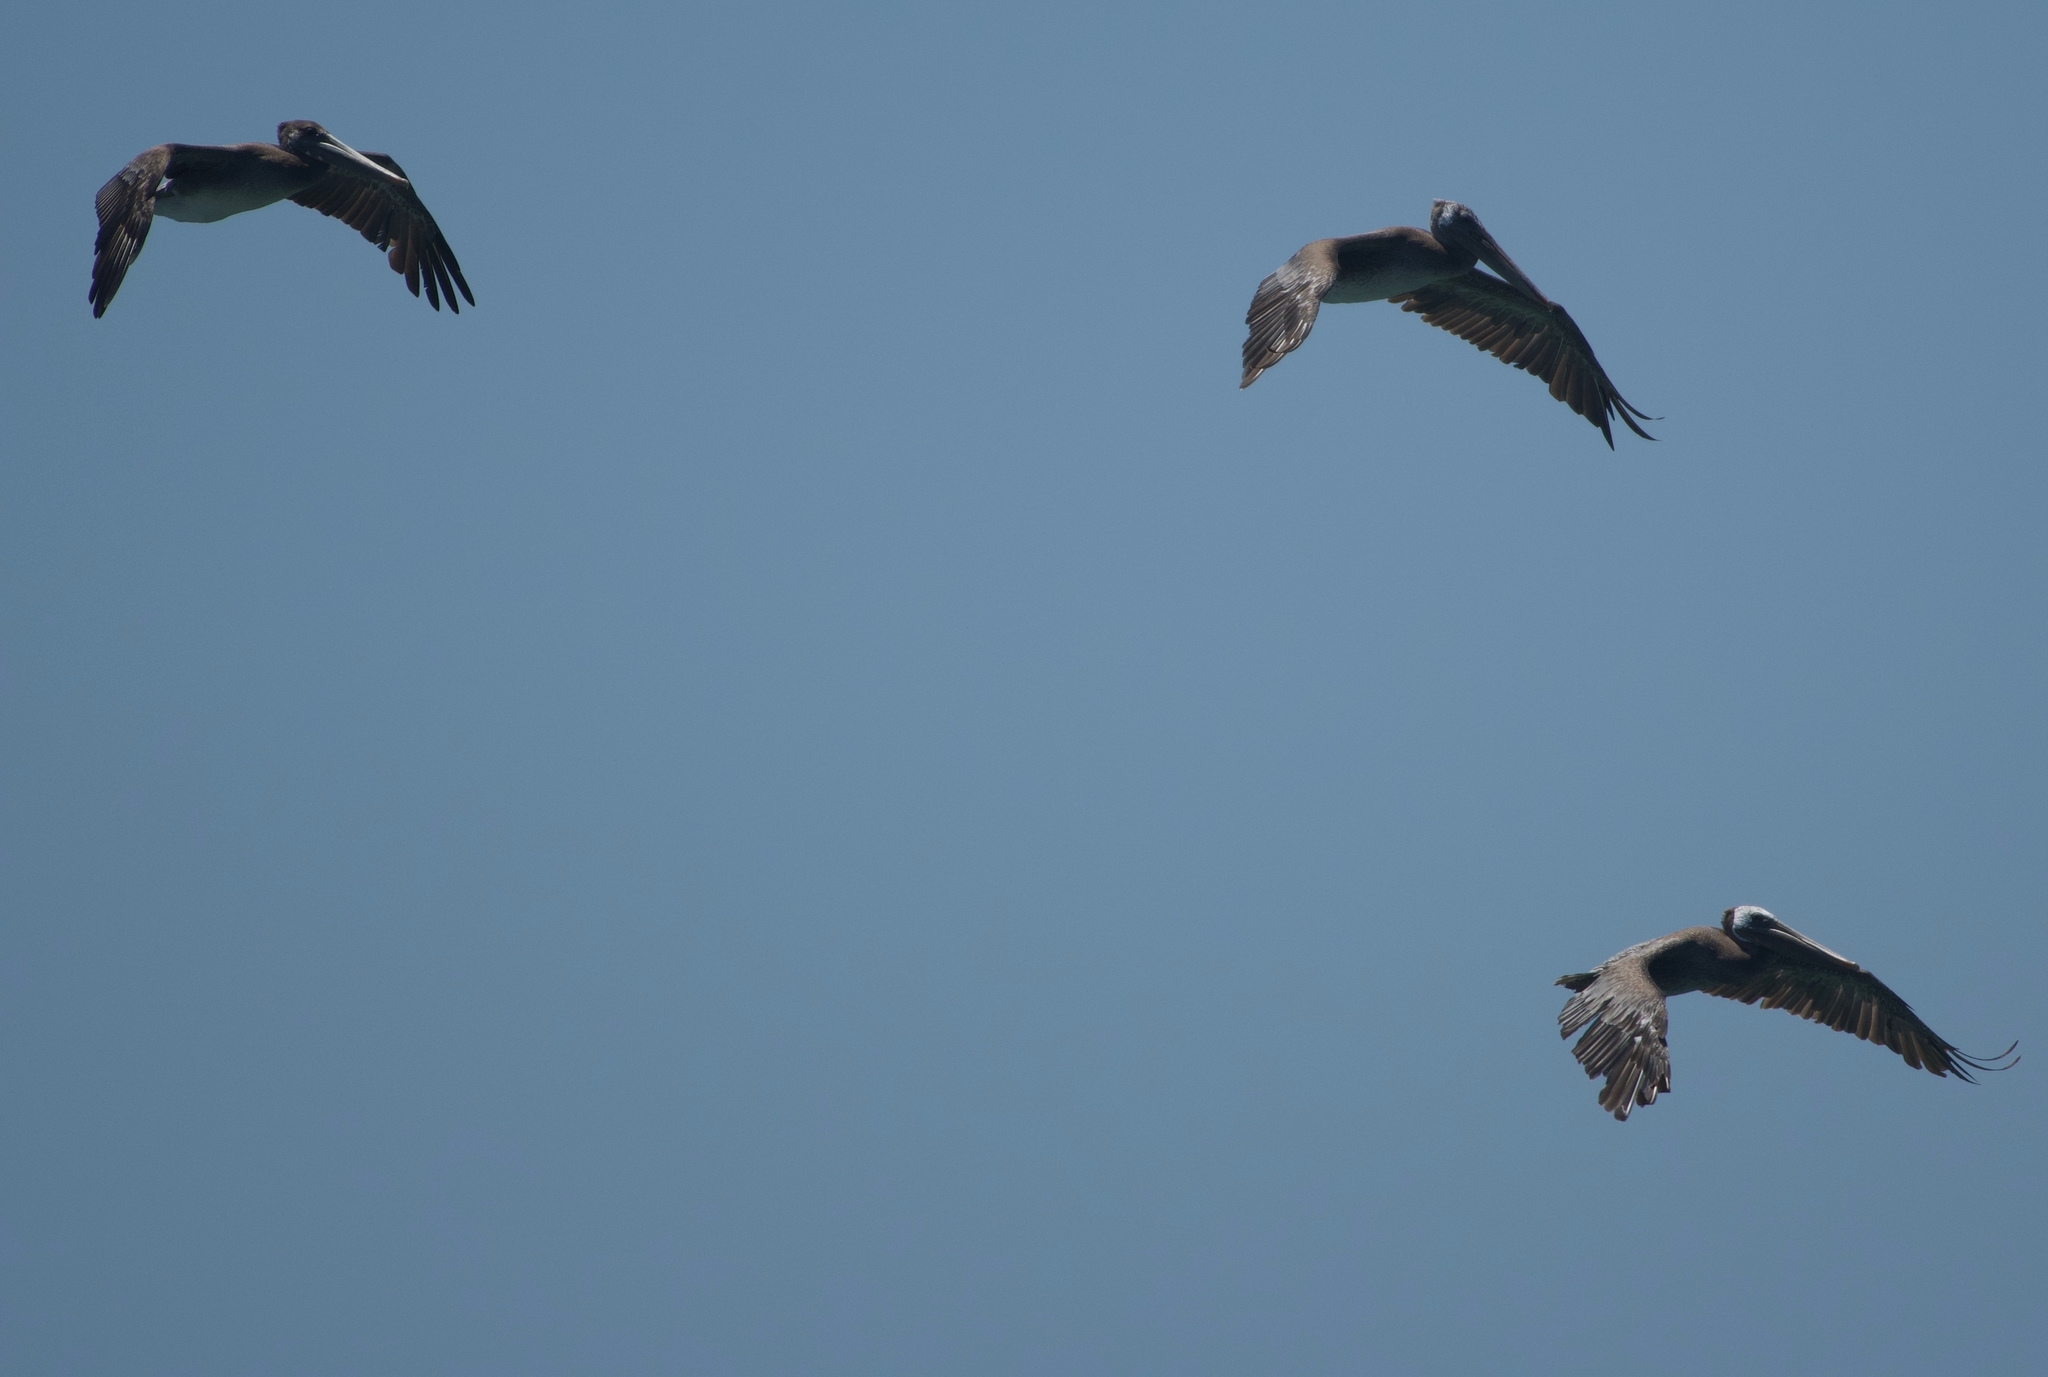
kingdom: Animalia
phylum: Chordata
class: Aves
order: Pelecaniformes
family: Pelecanidae
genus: Pelecanus
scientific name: Pelecanus occidentalis
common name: Brown pelican
